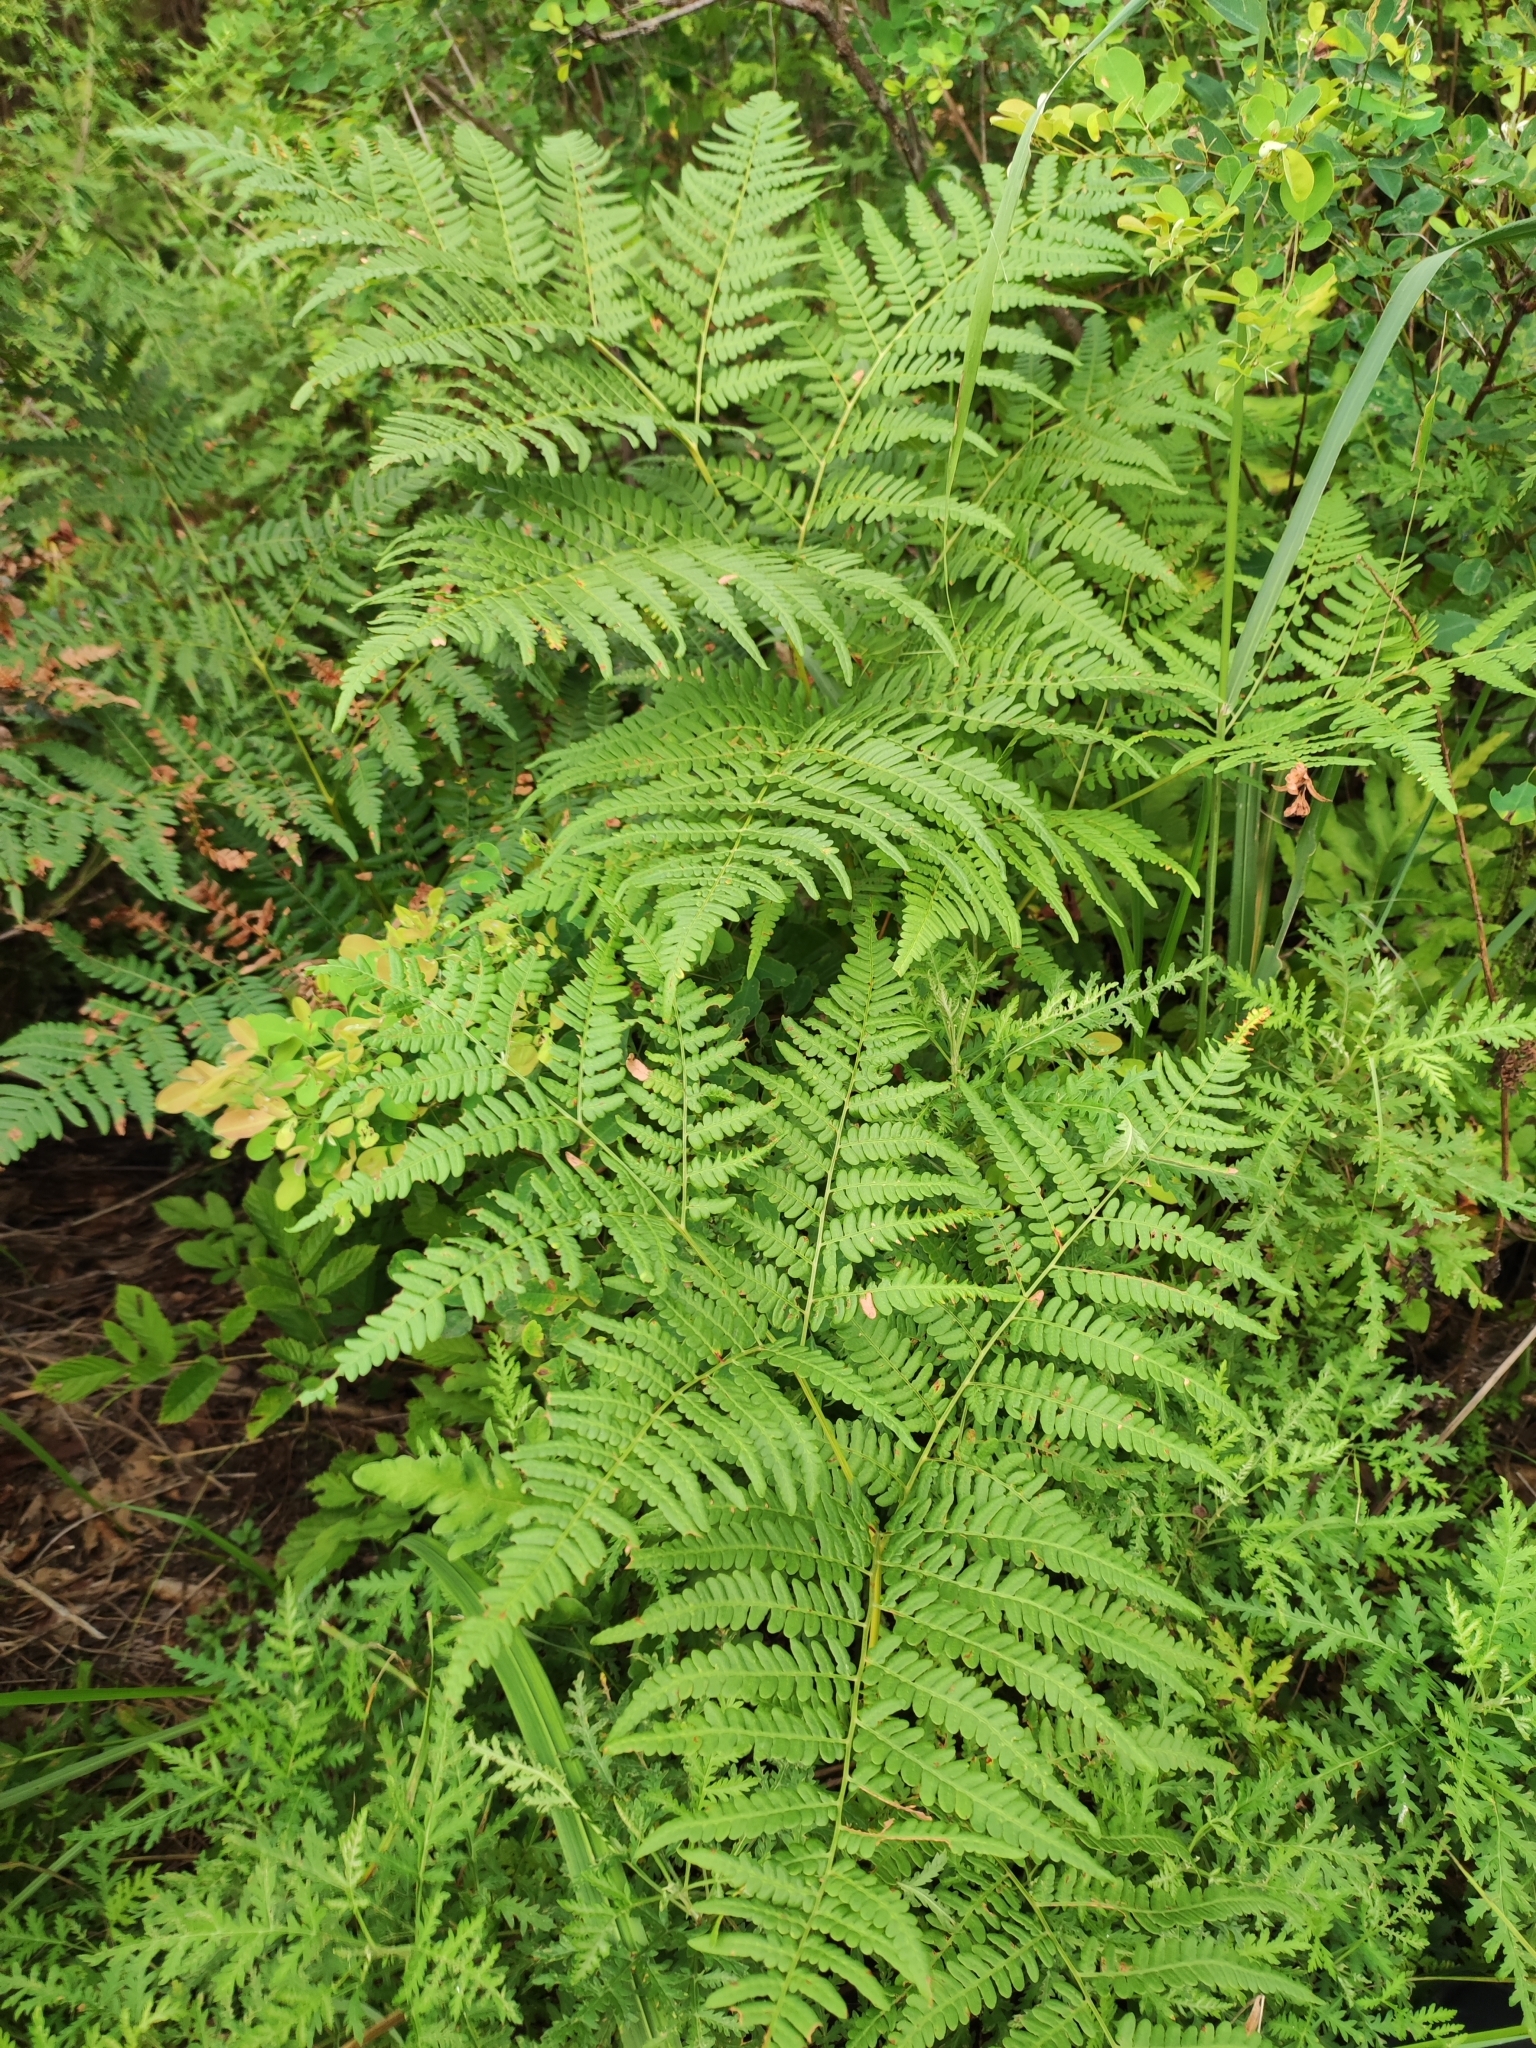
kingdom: Plantae
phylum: Tracheophyta
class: Polypodiopsida
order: Polypodiales
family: Dennstaedtiaceae
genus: Pteridium
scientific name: Pteridium aquilinum
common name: Bracken
